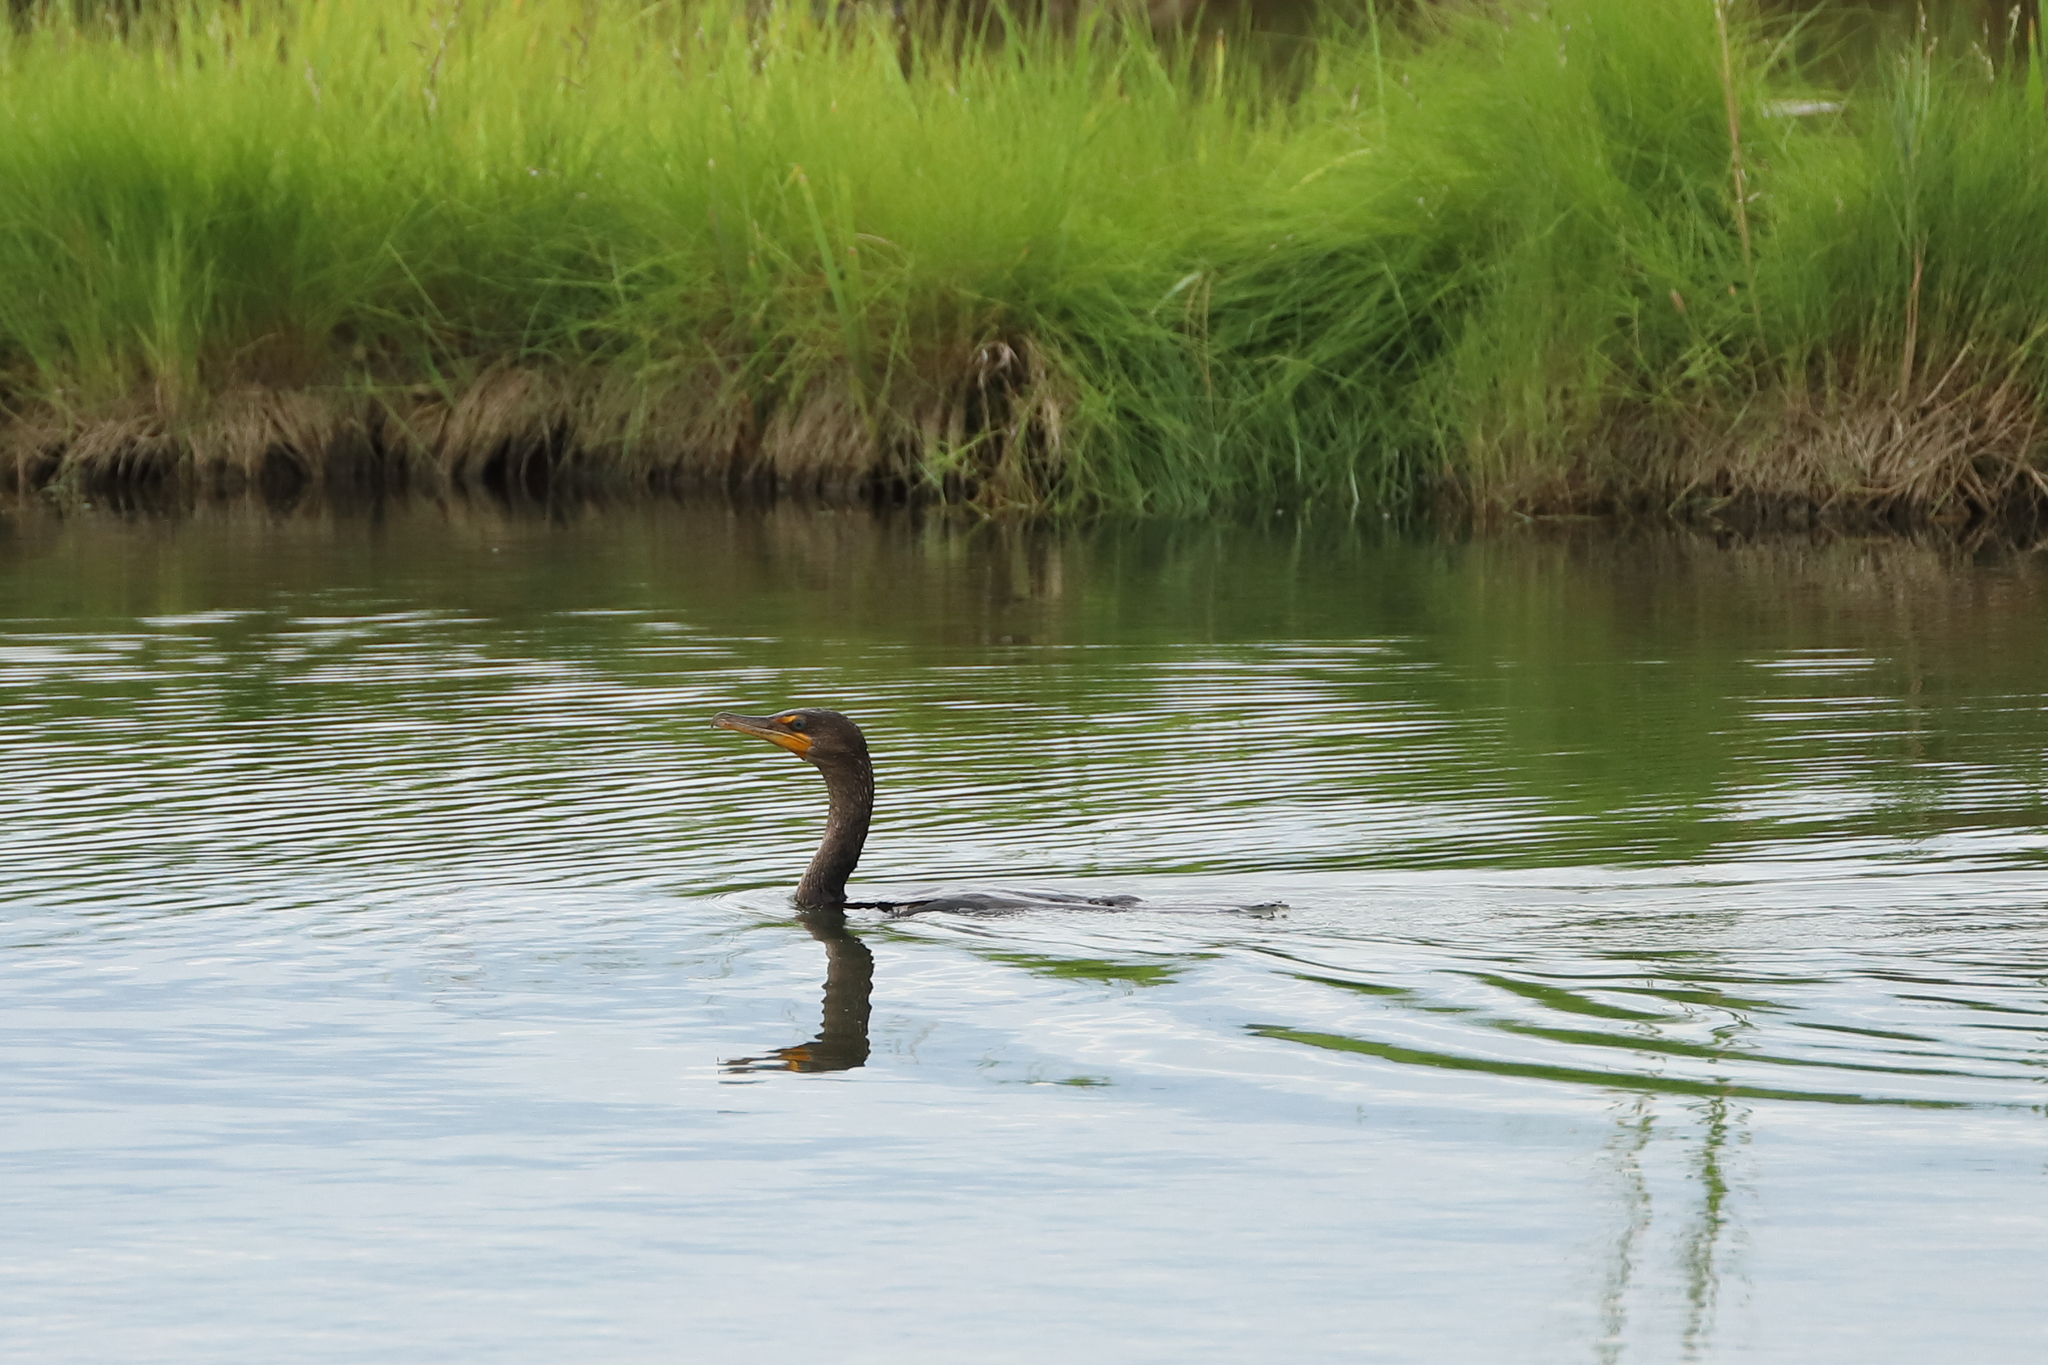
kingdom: Animalia
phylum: Chordata
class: Aves
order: Suliformes
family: Phalacrocoracidae
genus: Phalacrocorax
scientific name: Phalacrocorax auritus
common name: Double-crested cormorant
